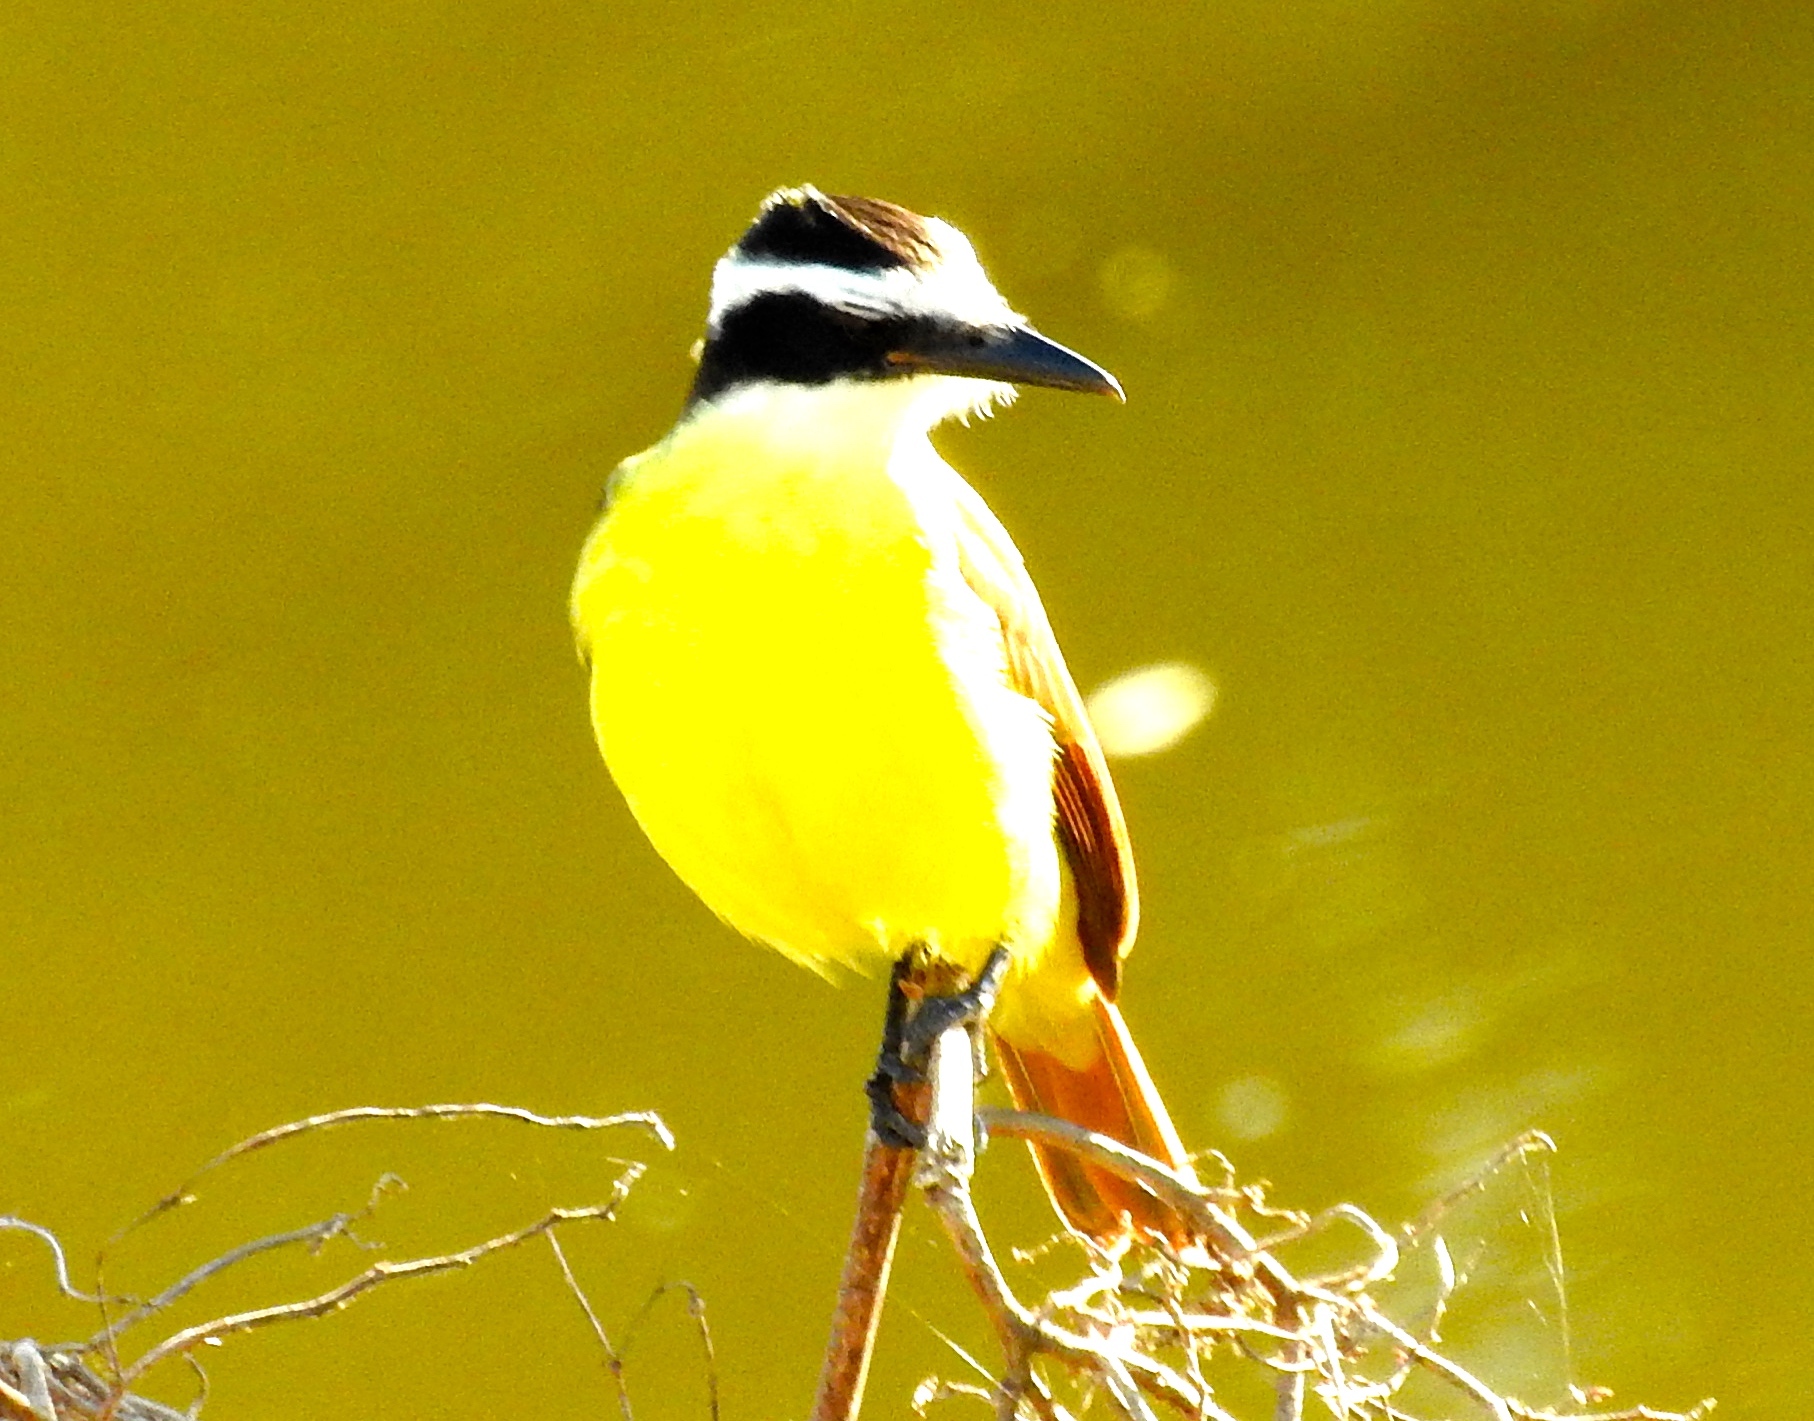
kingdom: Animalia
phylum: Chordata
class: Aves
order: Passeriformes
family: Tyrannidae
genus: Pitangus
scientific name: Pitangus sulphuratus
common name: Great kiskadee
